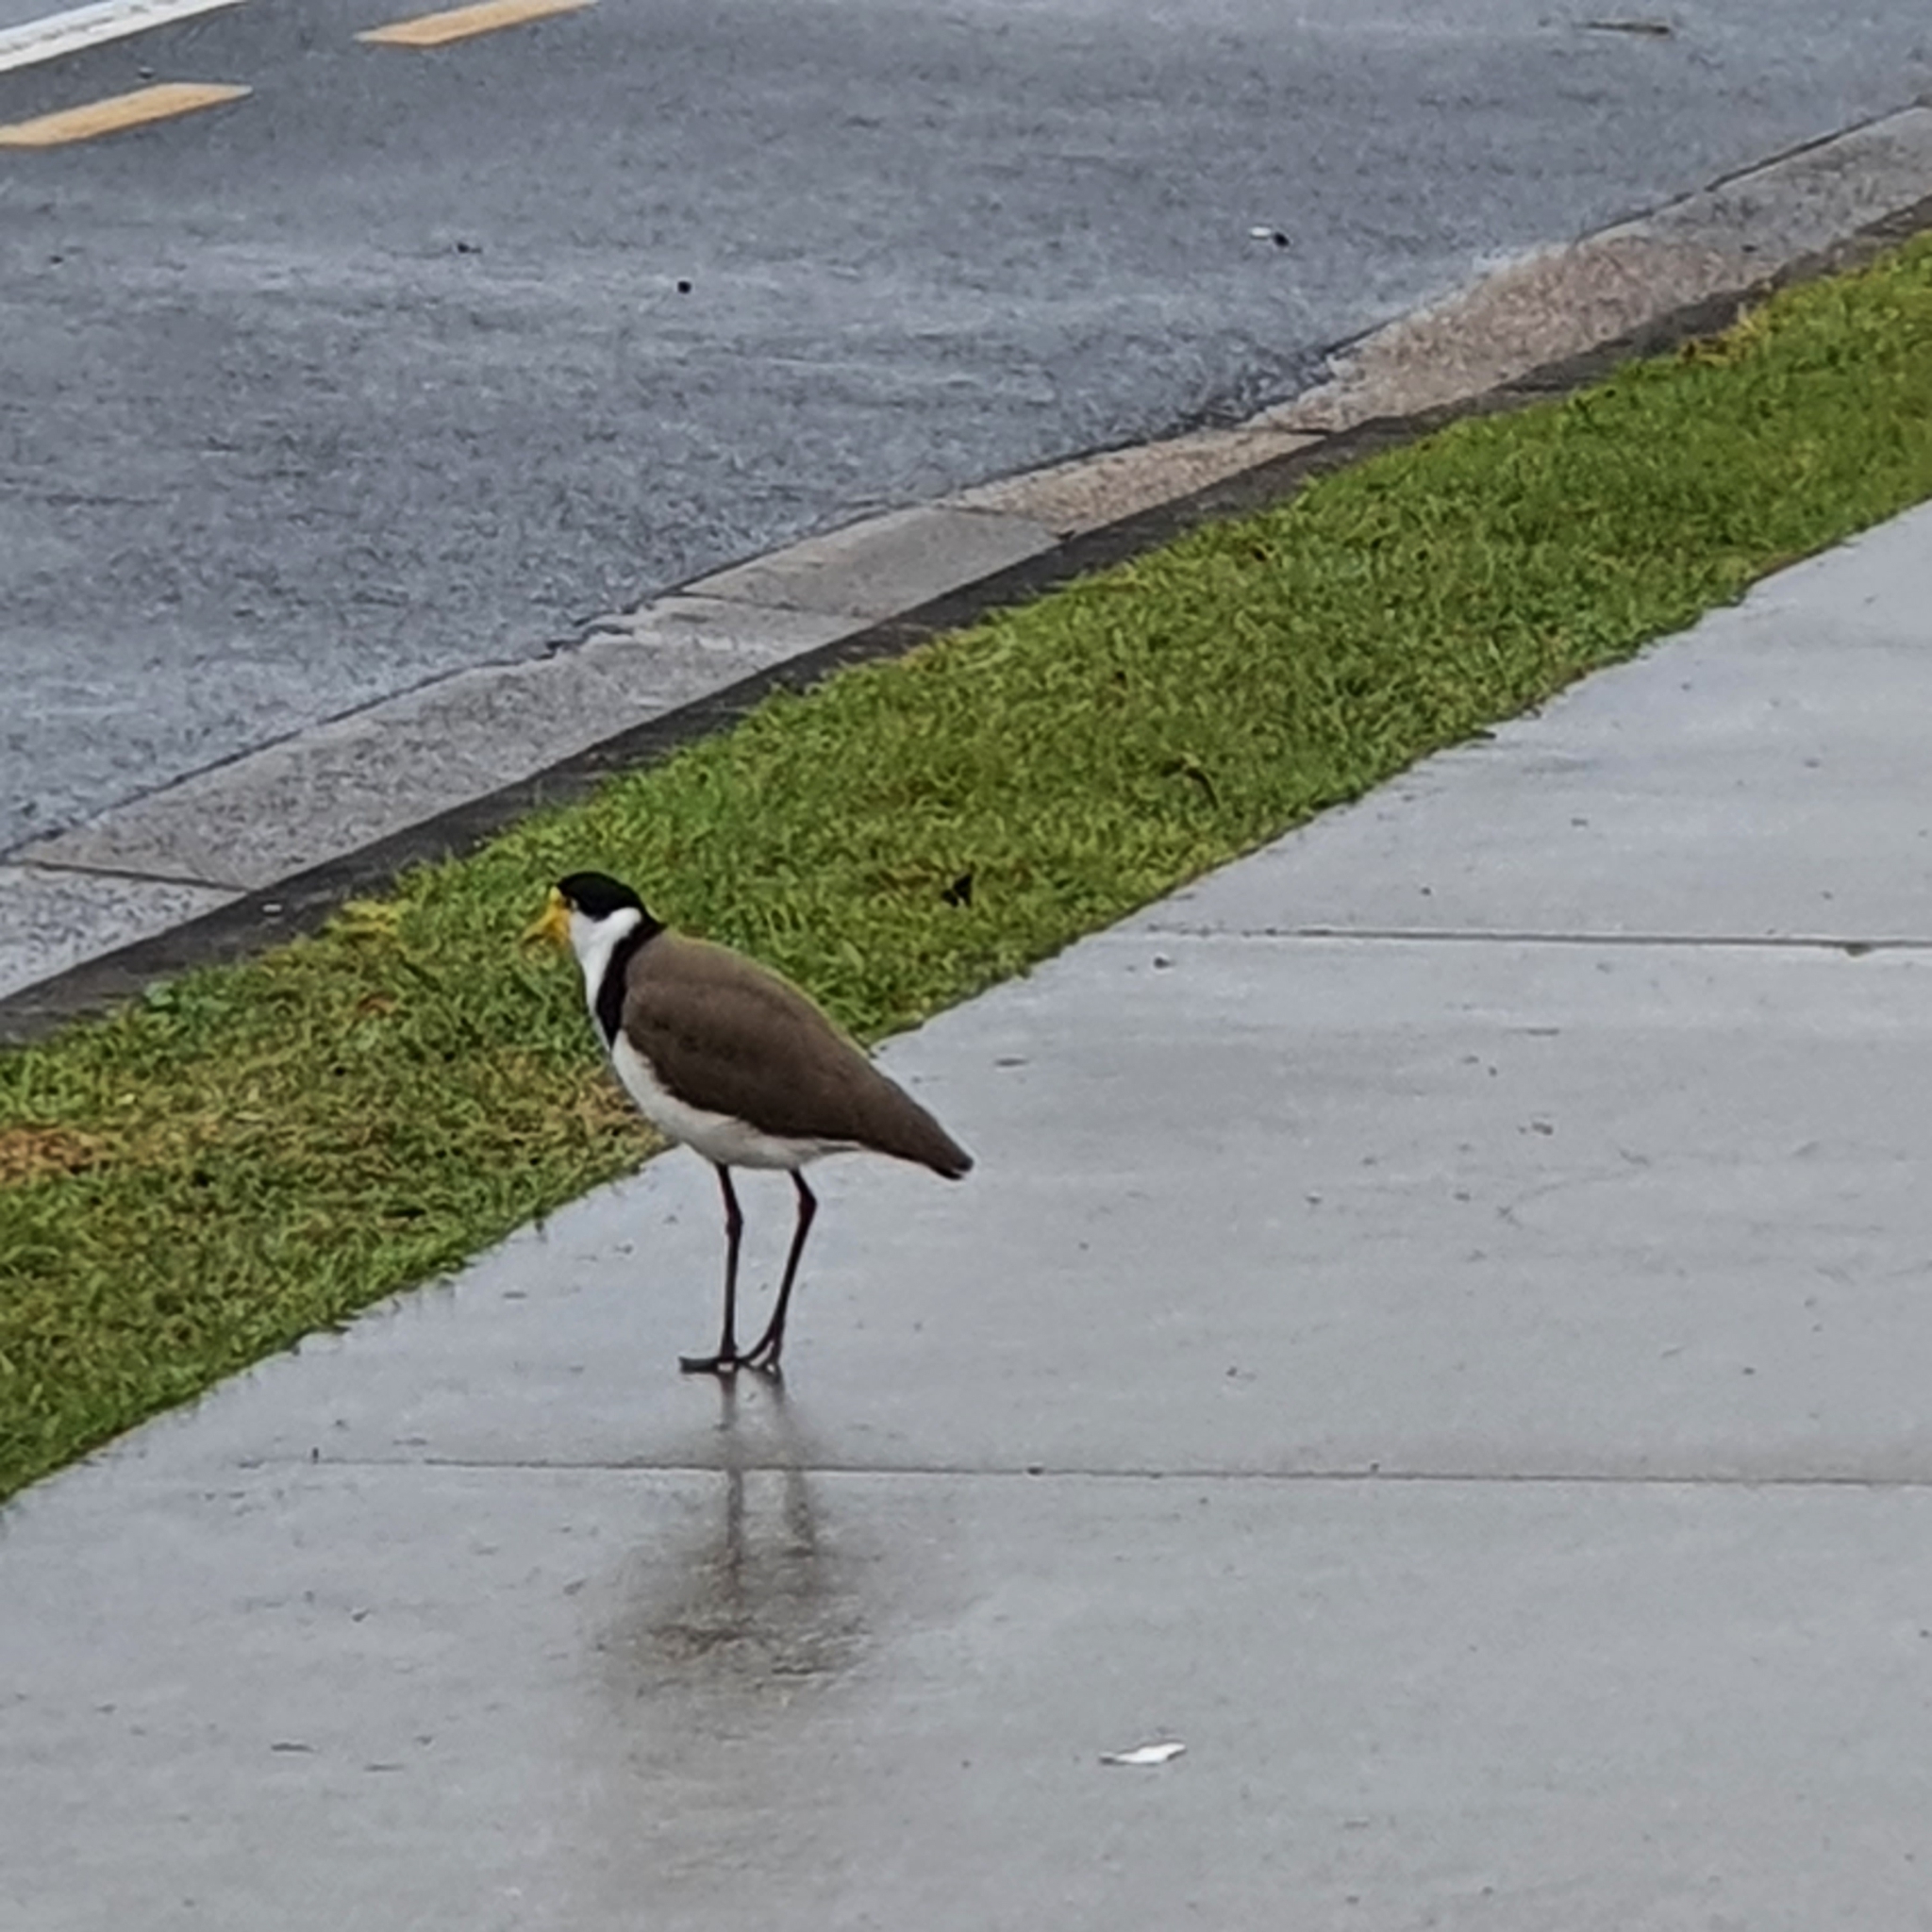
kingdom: Animalia
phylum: Chordata
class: Aves
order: Charadriiformes
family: Charadriidae
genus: Vanellus
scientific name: Vanellus miles
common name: Masked lapwing
